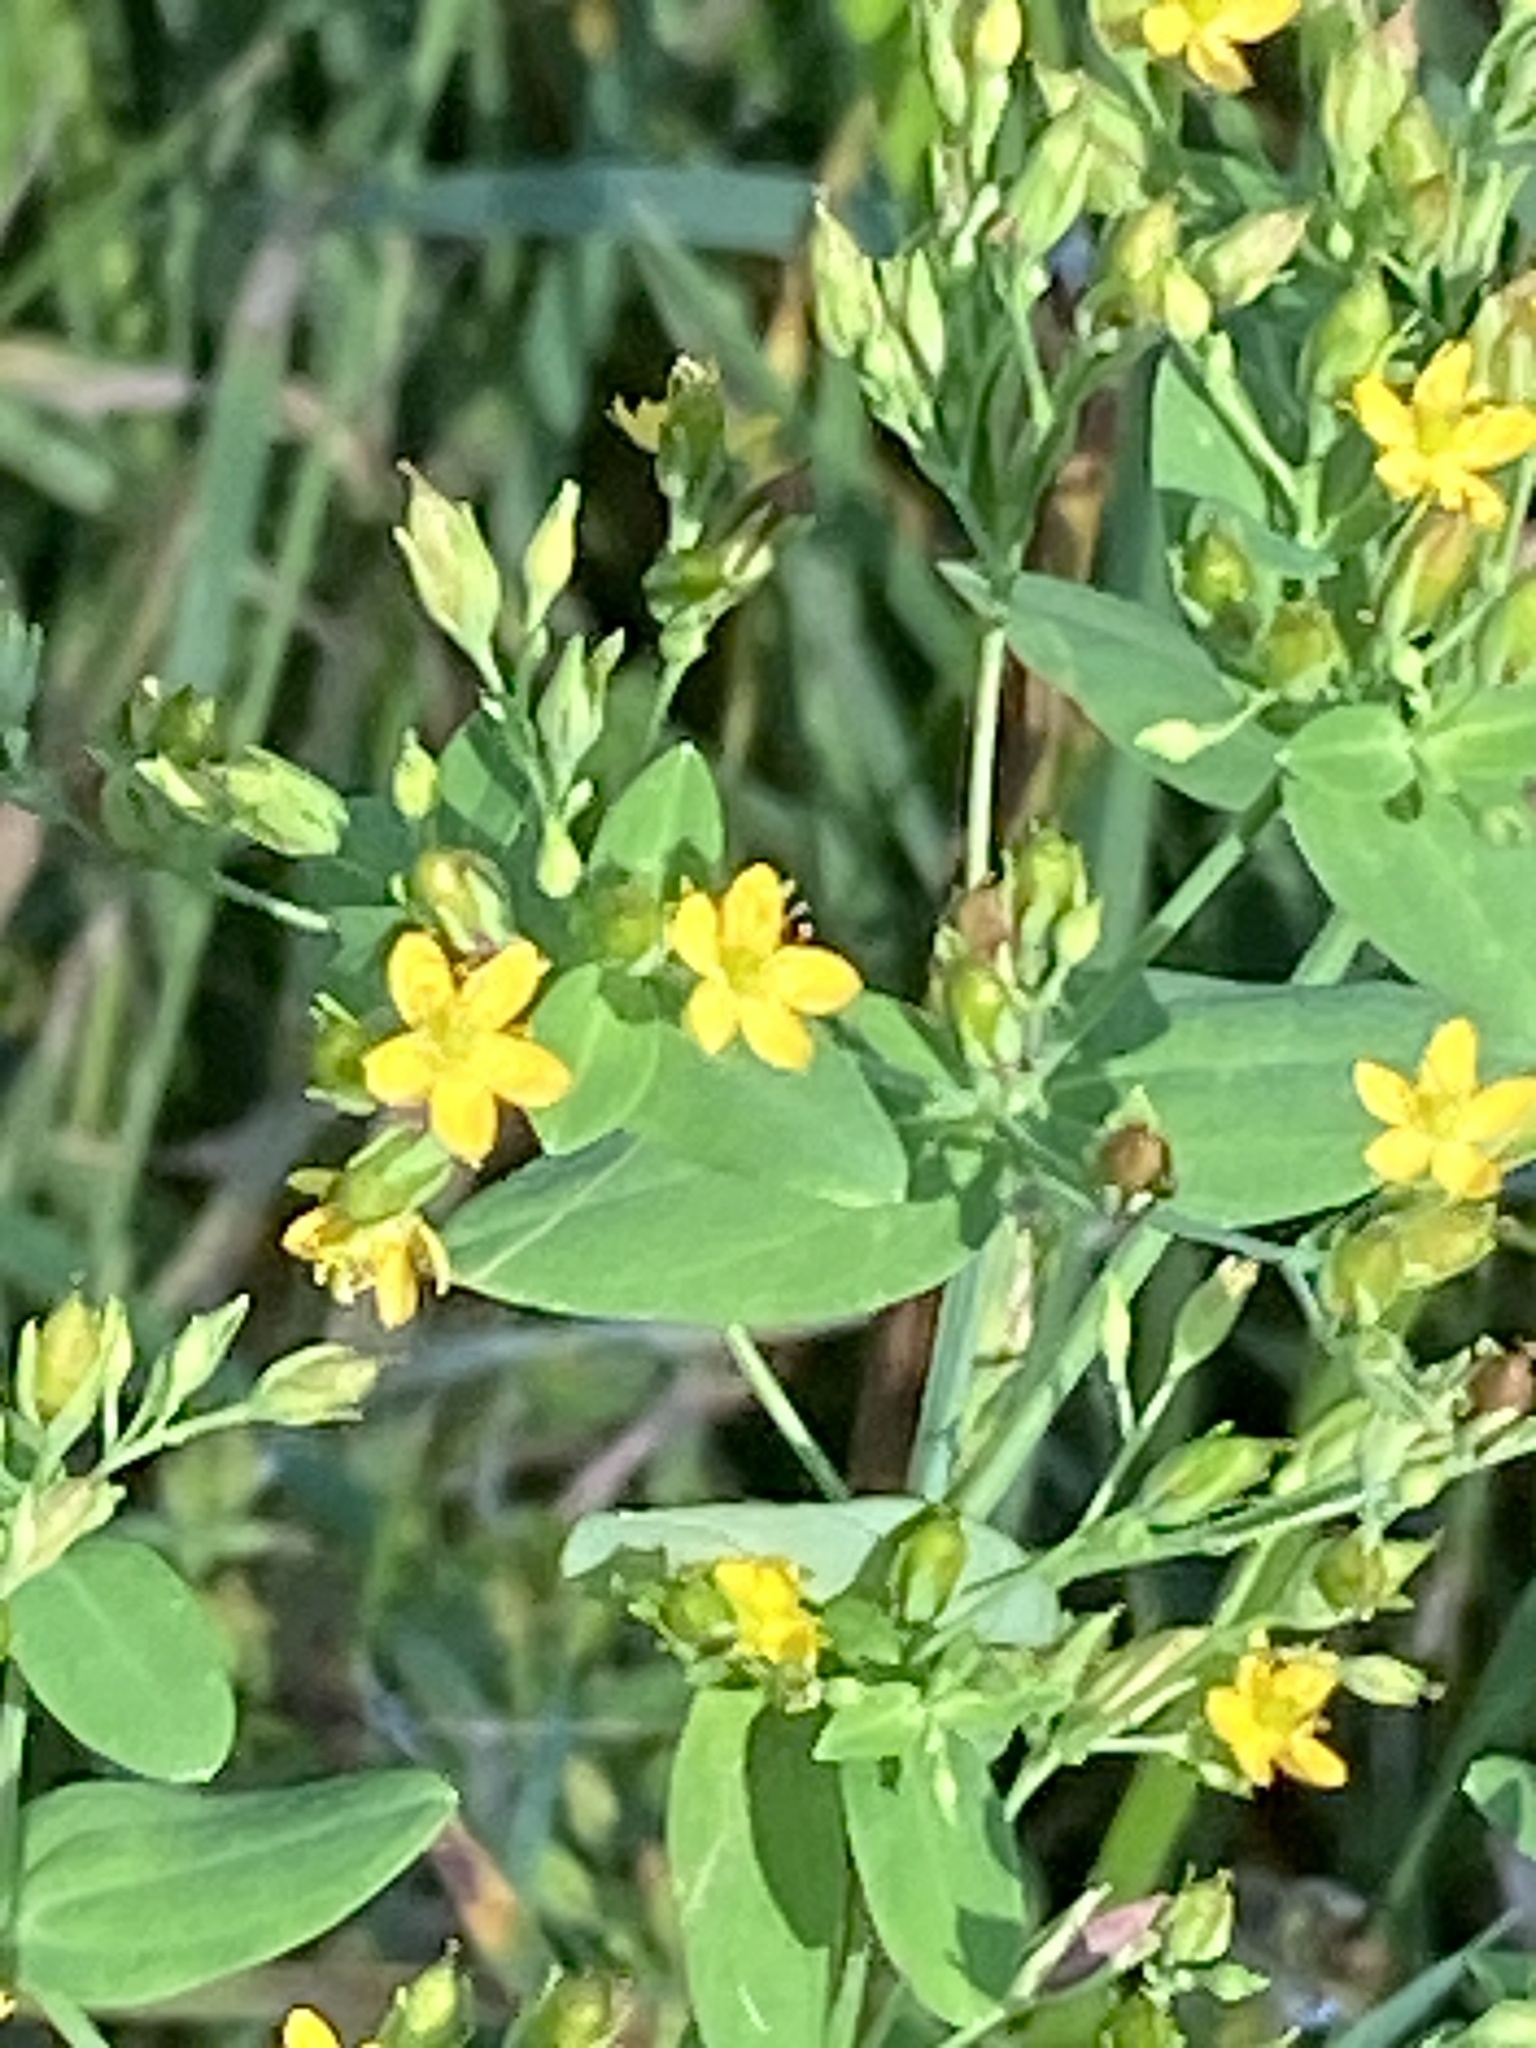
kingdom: Plantae
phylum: Tracheophyta
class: Magnoliopsida
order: Malpighiales
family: Hypericaceae
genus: Hypericum
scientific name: Hypericum mutilum
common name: Dwarf st. john's-wort
